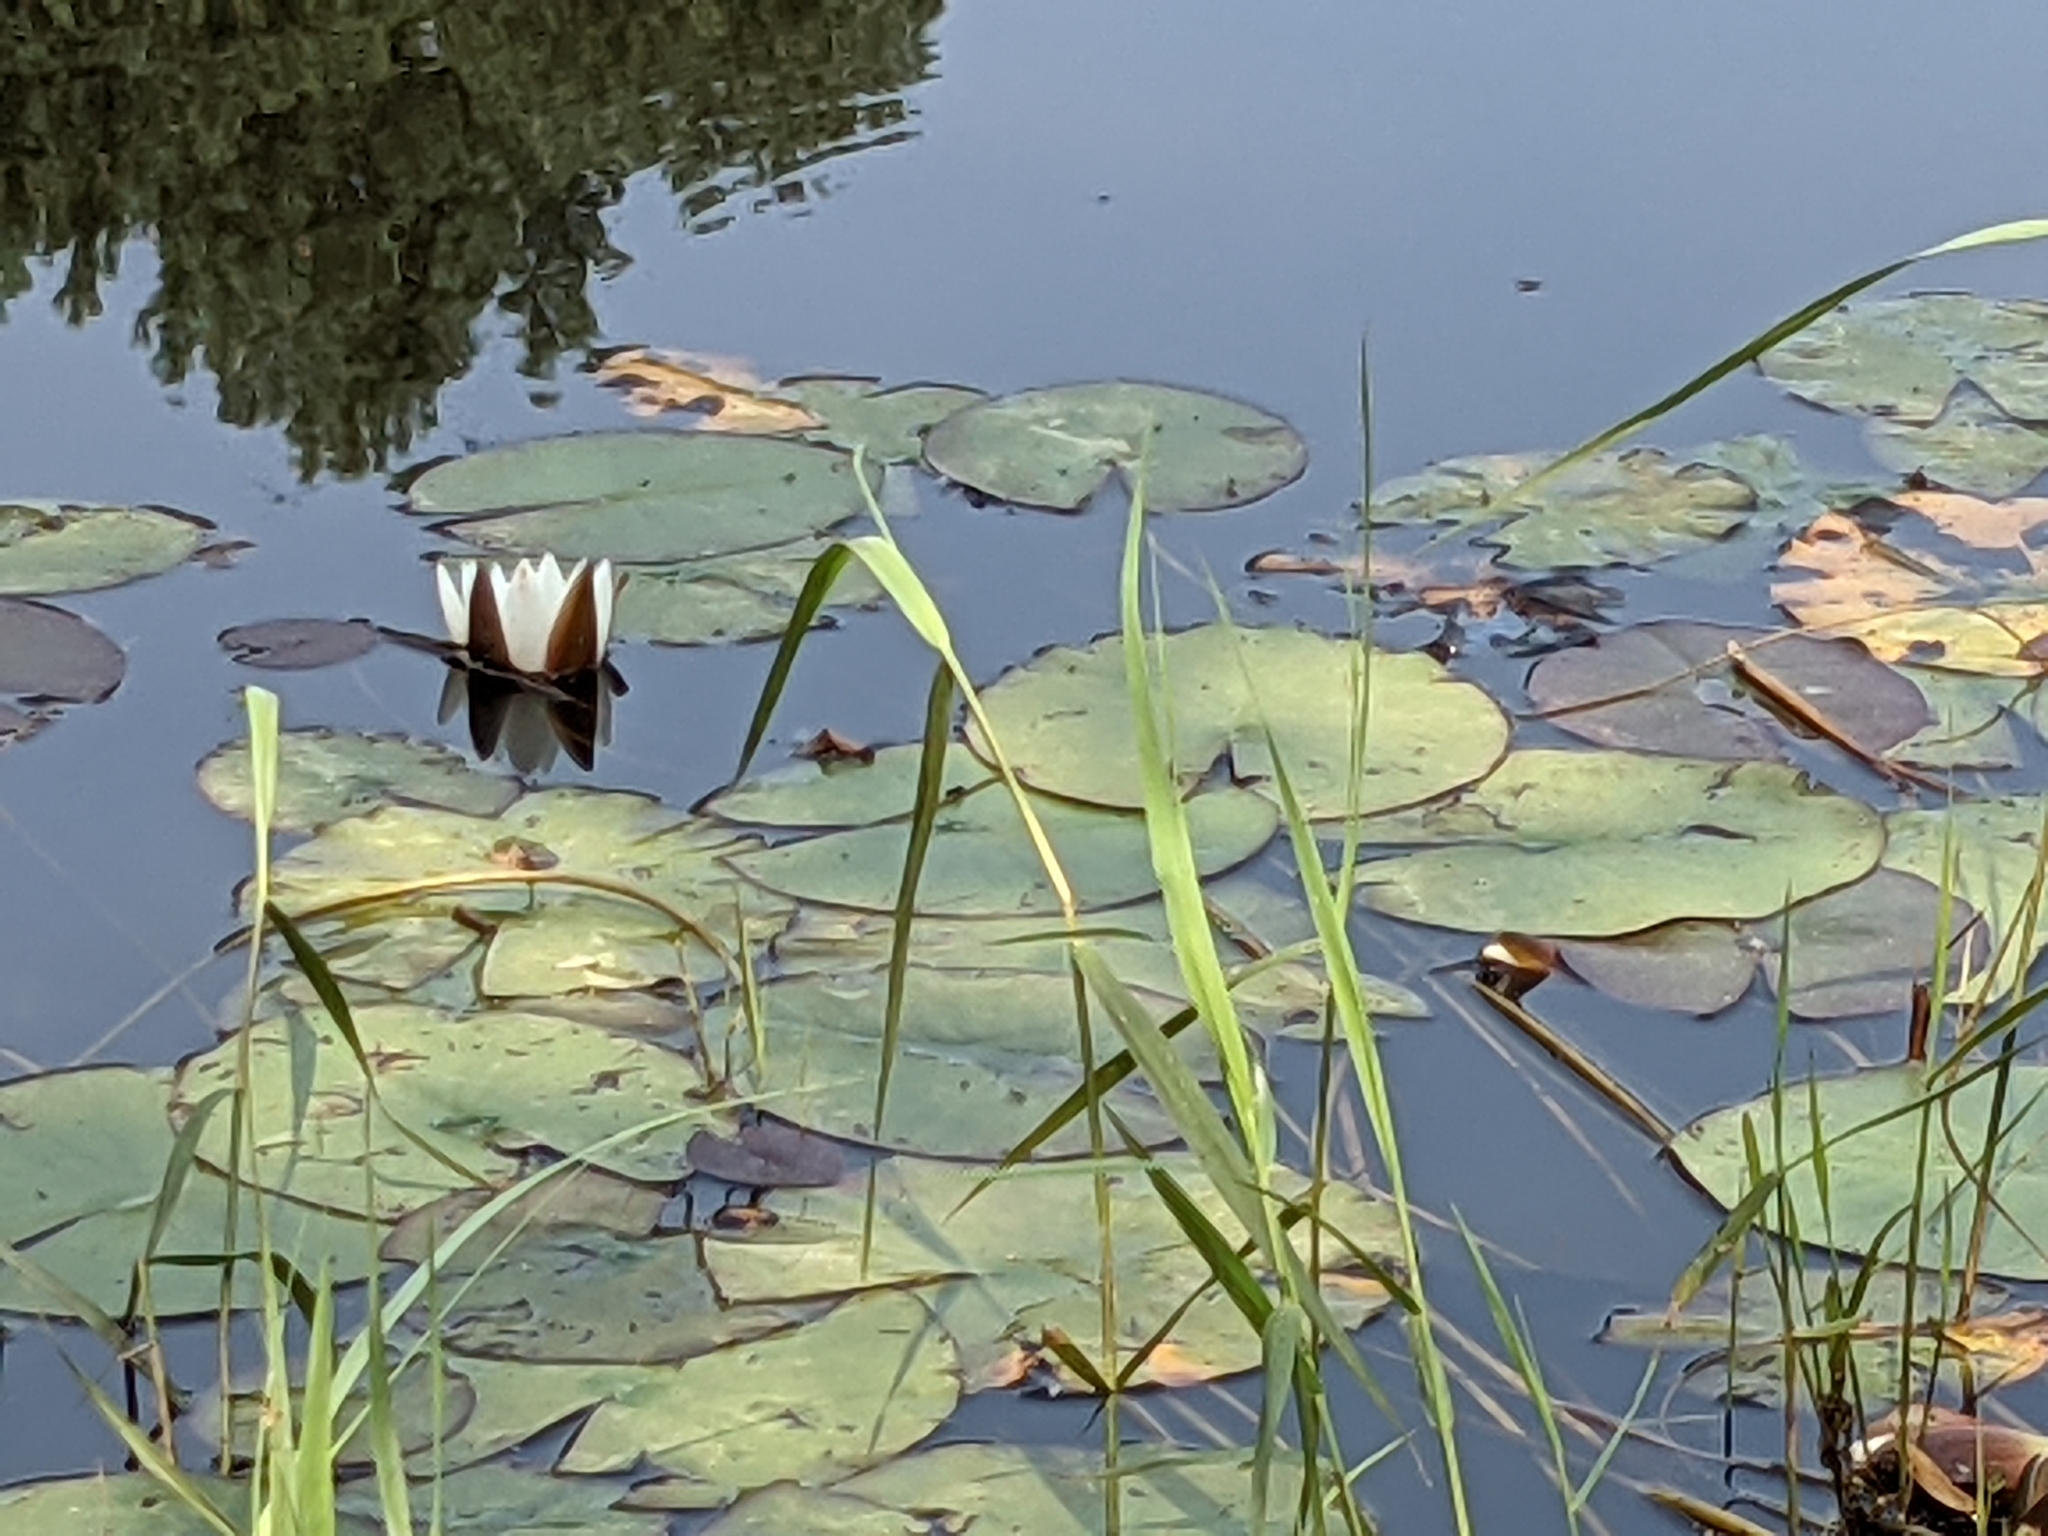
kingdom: Plantae
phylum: Tracheophyta
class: Magnoliopsida
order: Nymphaeales
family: Nymphaeaceae
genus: Nymphaea
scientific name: Nymphaea alba
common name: White water-lily
